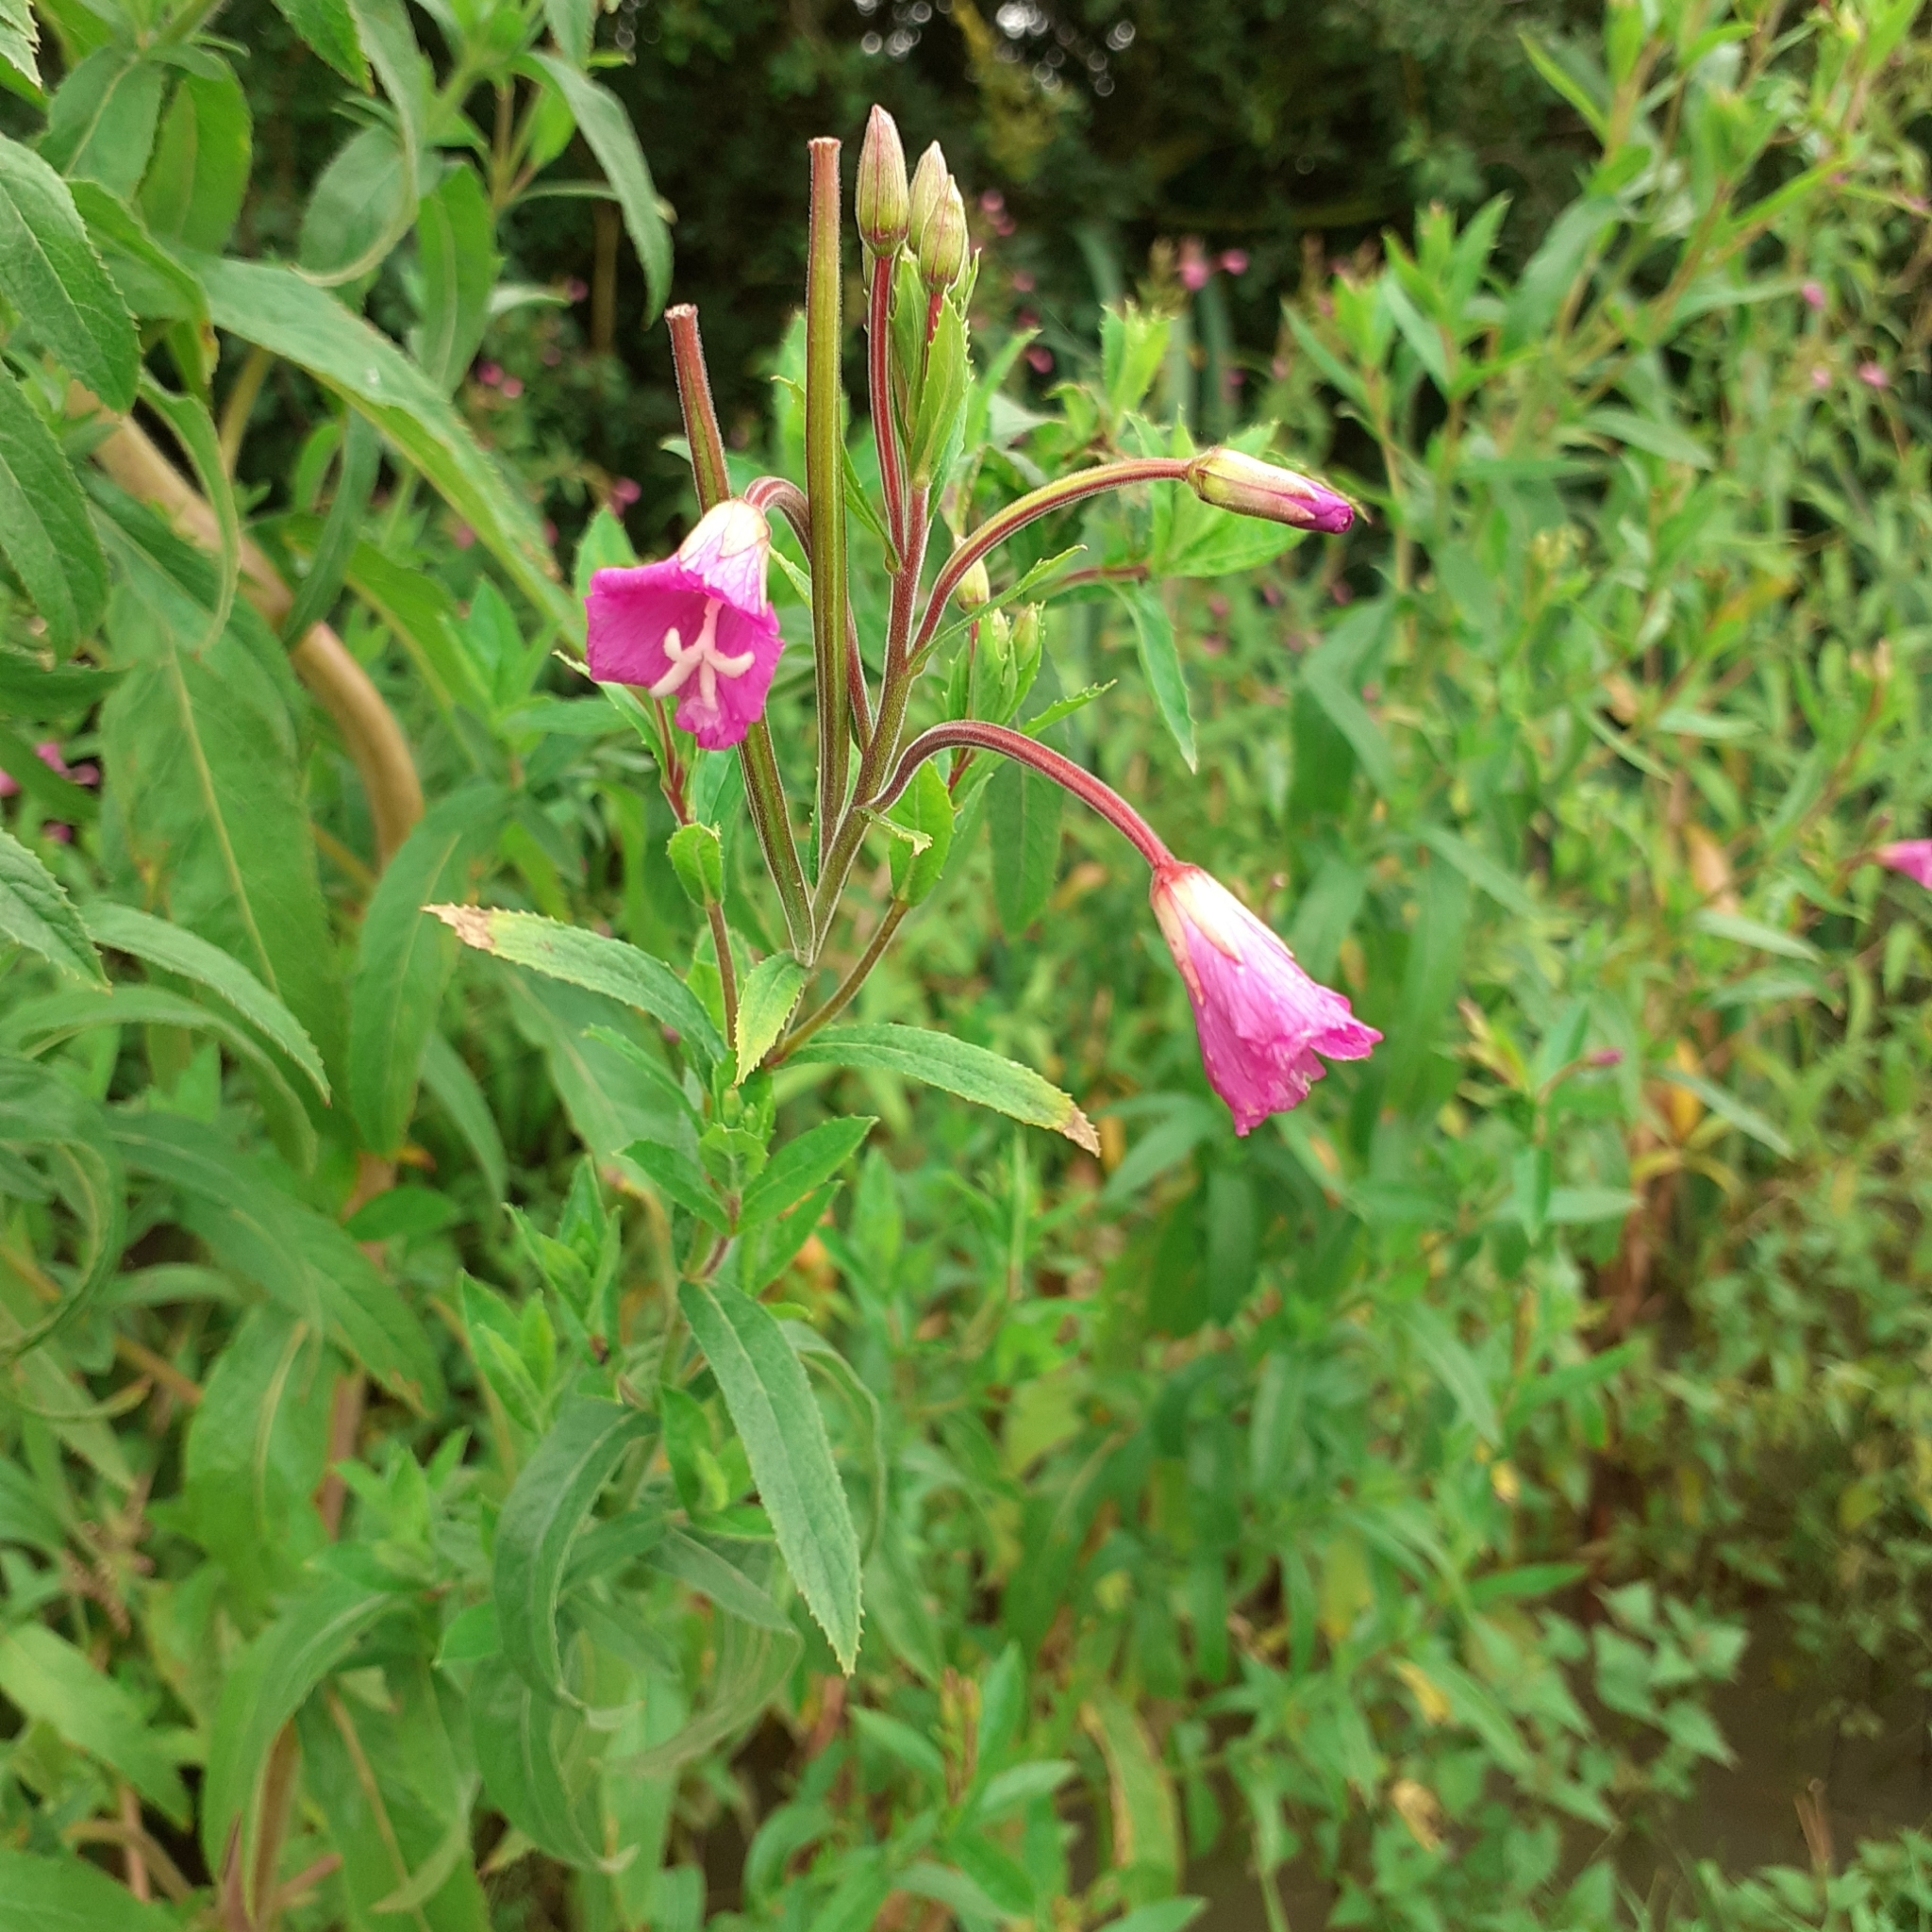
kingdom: Plantae
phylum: Tracheophyta
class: Magnoliopsida
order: Myrtales
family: Onagraceae
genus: Epilobium
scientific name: Epilobium hirsutum
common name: Great willowherb
